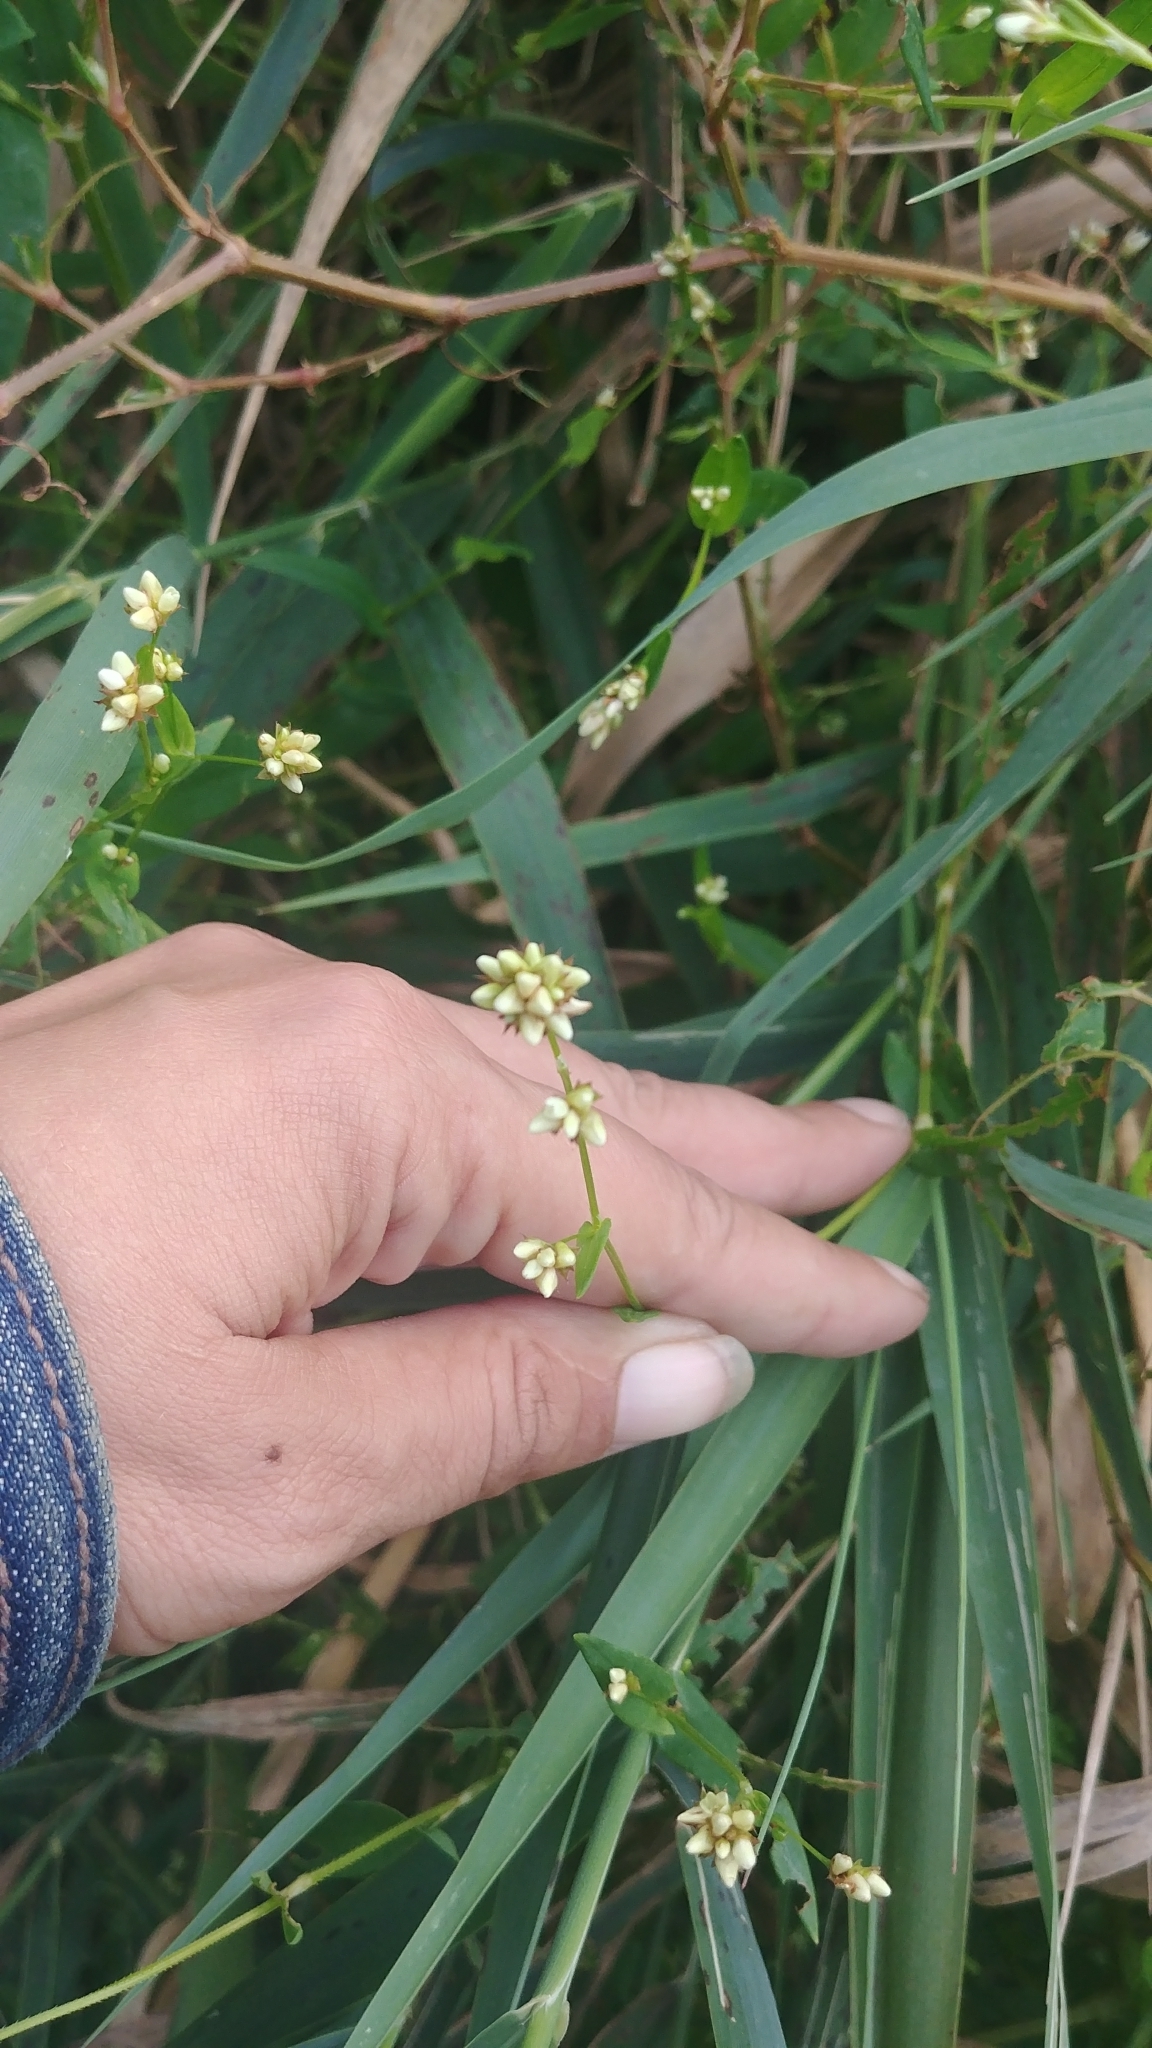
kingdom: Plantae
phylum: Tracheophyta
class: Magnoliopsida
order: Caryophyllales
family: Polygonaceae
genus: Persicaria
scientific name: Persicaria sagittata
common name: American tearthumb
